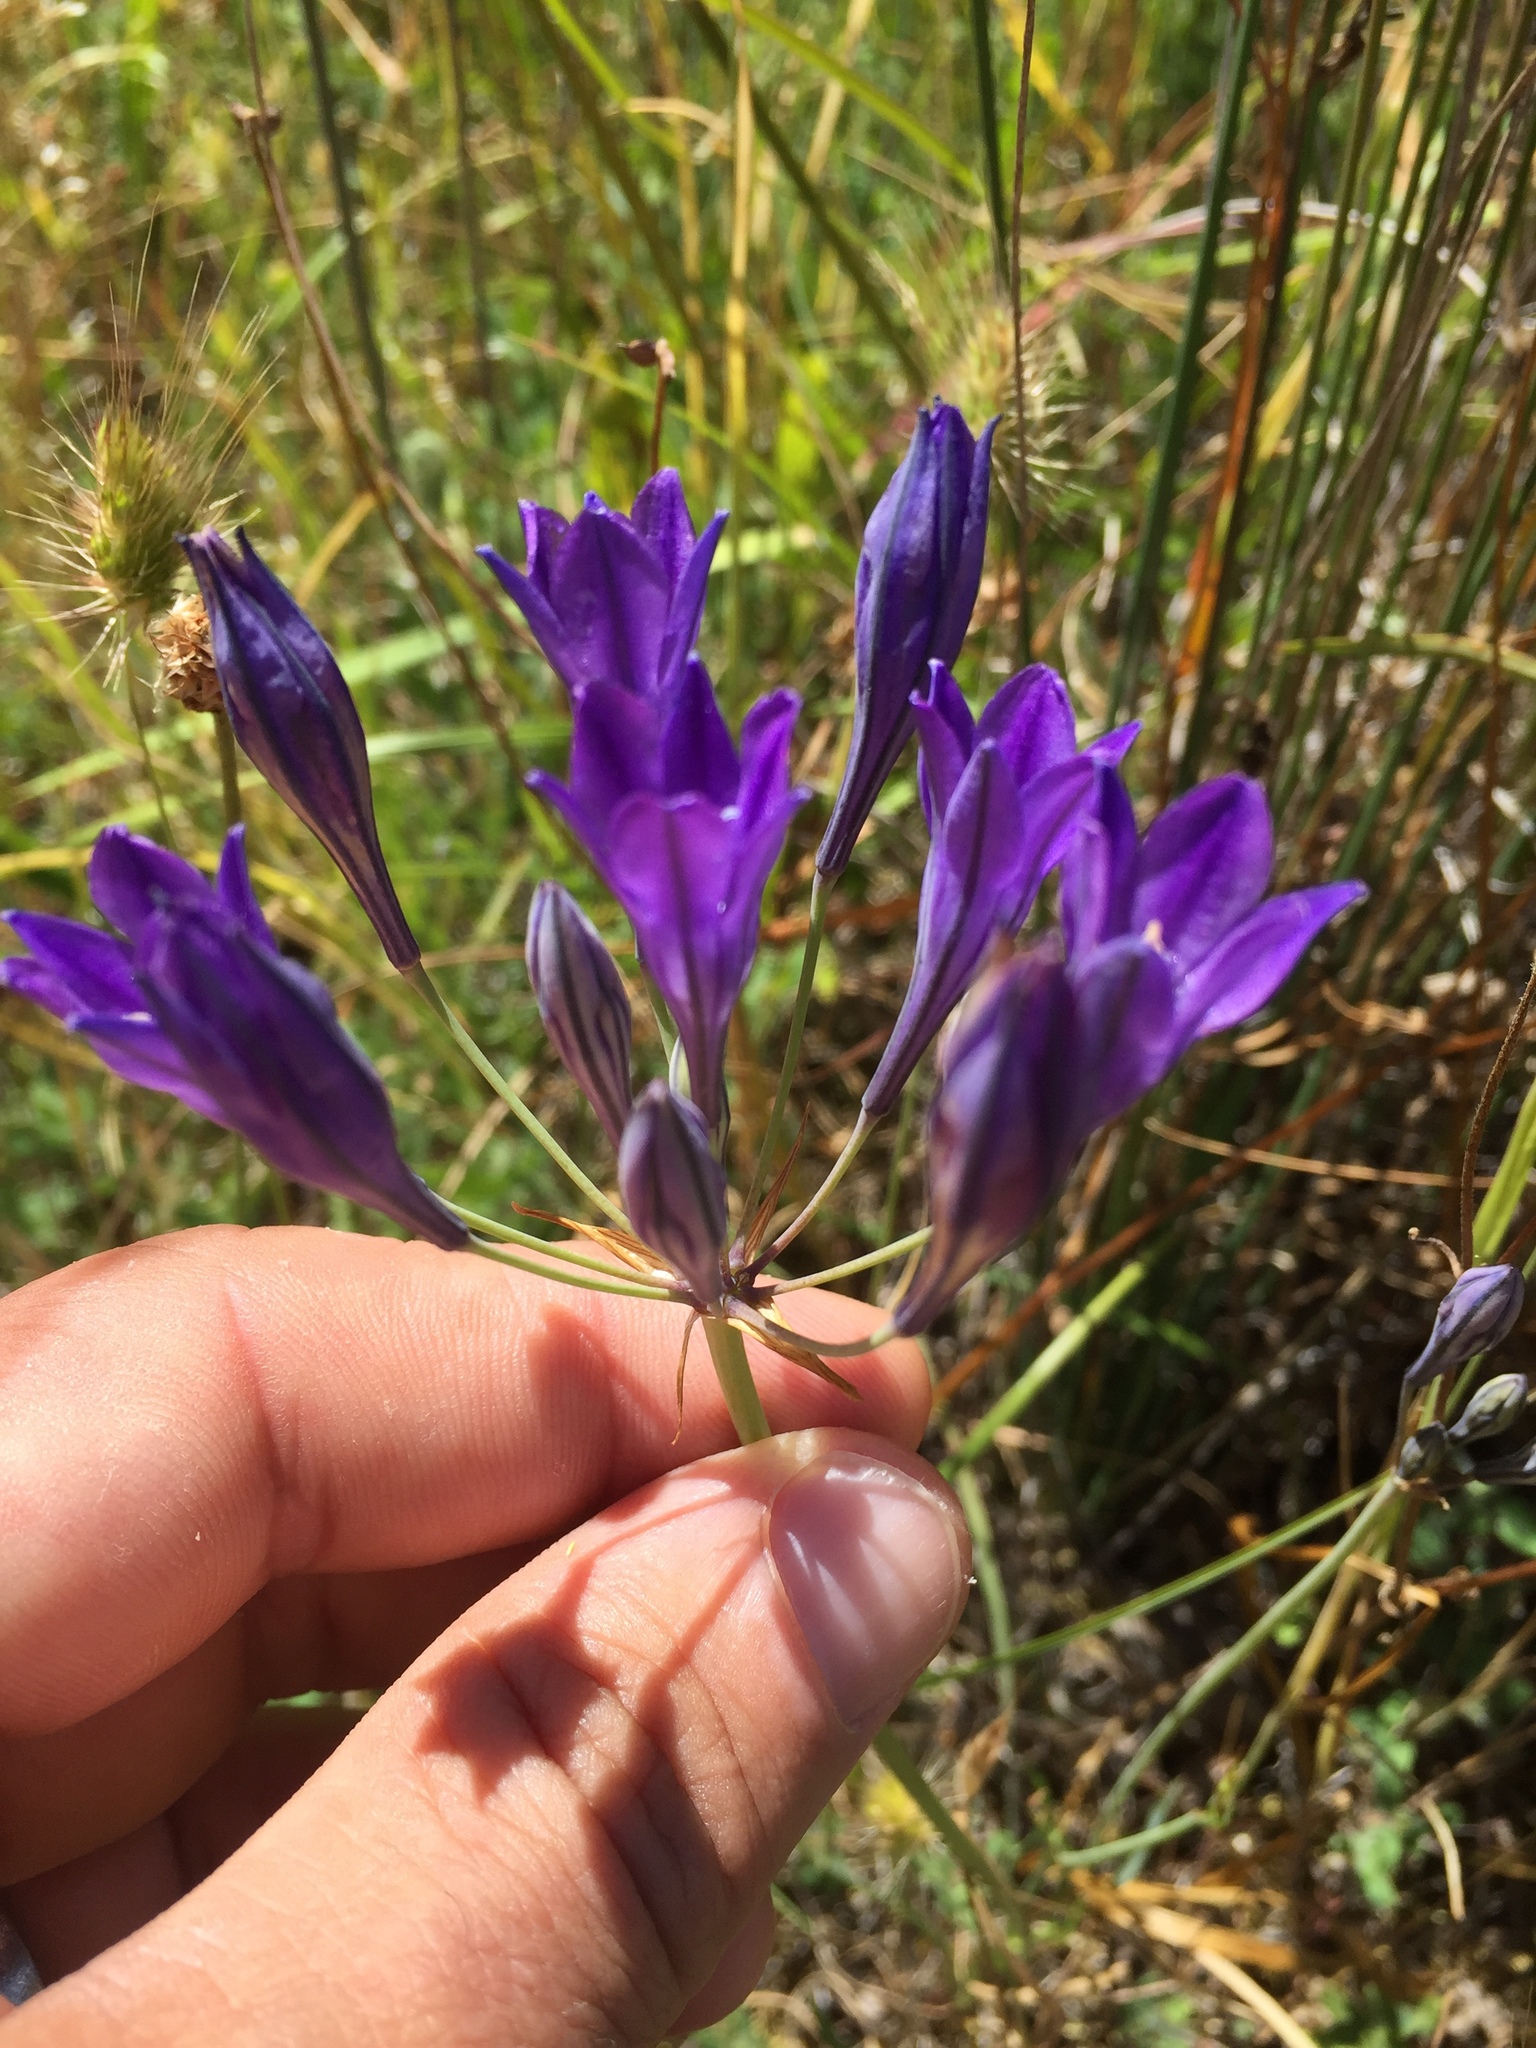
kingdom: Plantae
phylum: Tracheophyta
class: Liliopsida
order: Asparagales
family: Asparagaceae
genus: Triteleia
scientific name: Triteleia laxa
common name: Triplet-lily
